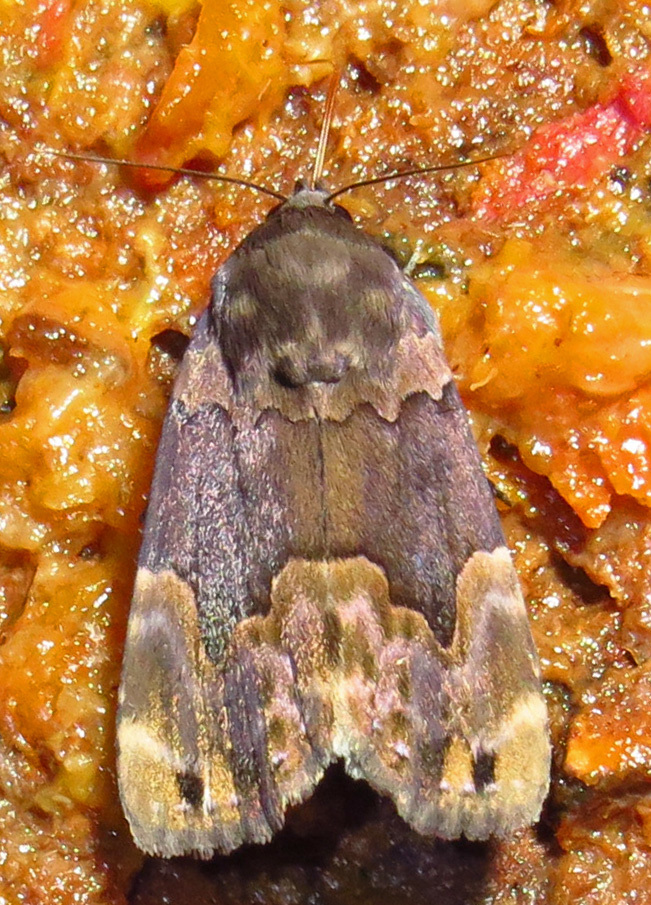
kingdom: Animalia
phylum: Arthropoda
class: Insecta
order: Lepidoptera
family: Erebidae
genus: Dinumma
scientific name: Dinumma deponens
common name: Purplish moth
